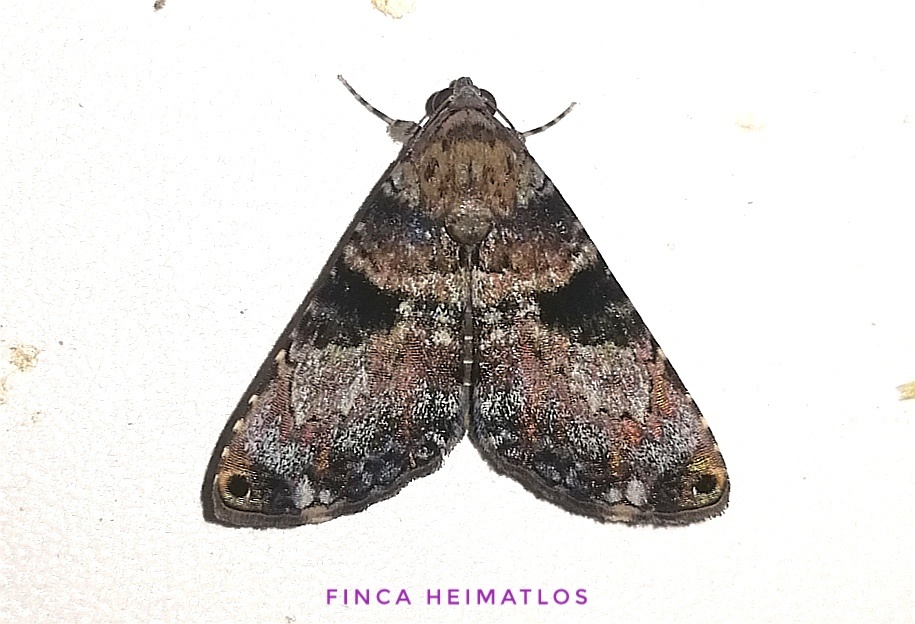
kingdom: Animalia
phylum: Arthropoda
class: Insecta
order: Lepidoptera
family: Erebidae
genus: Acolasis
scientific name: Acolasis bibitrix
